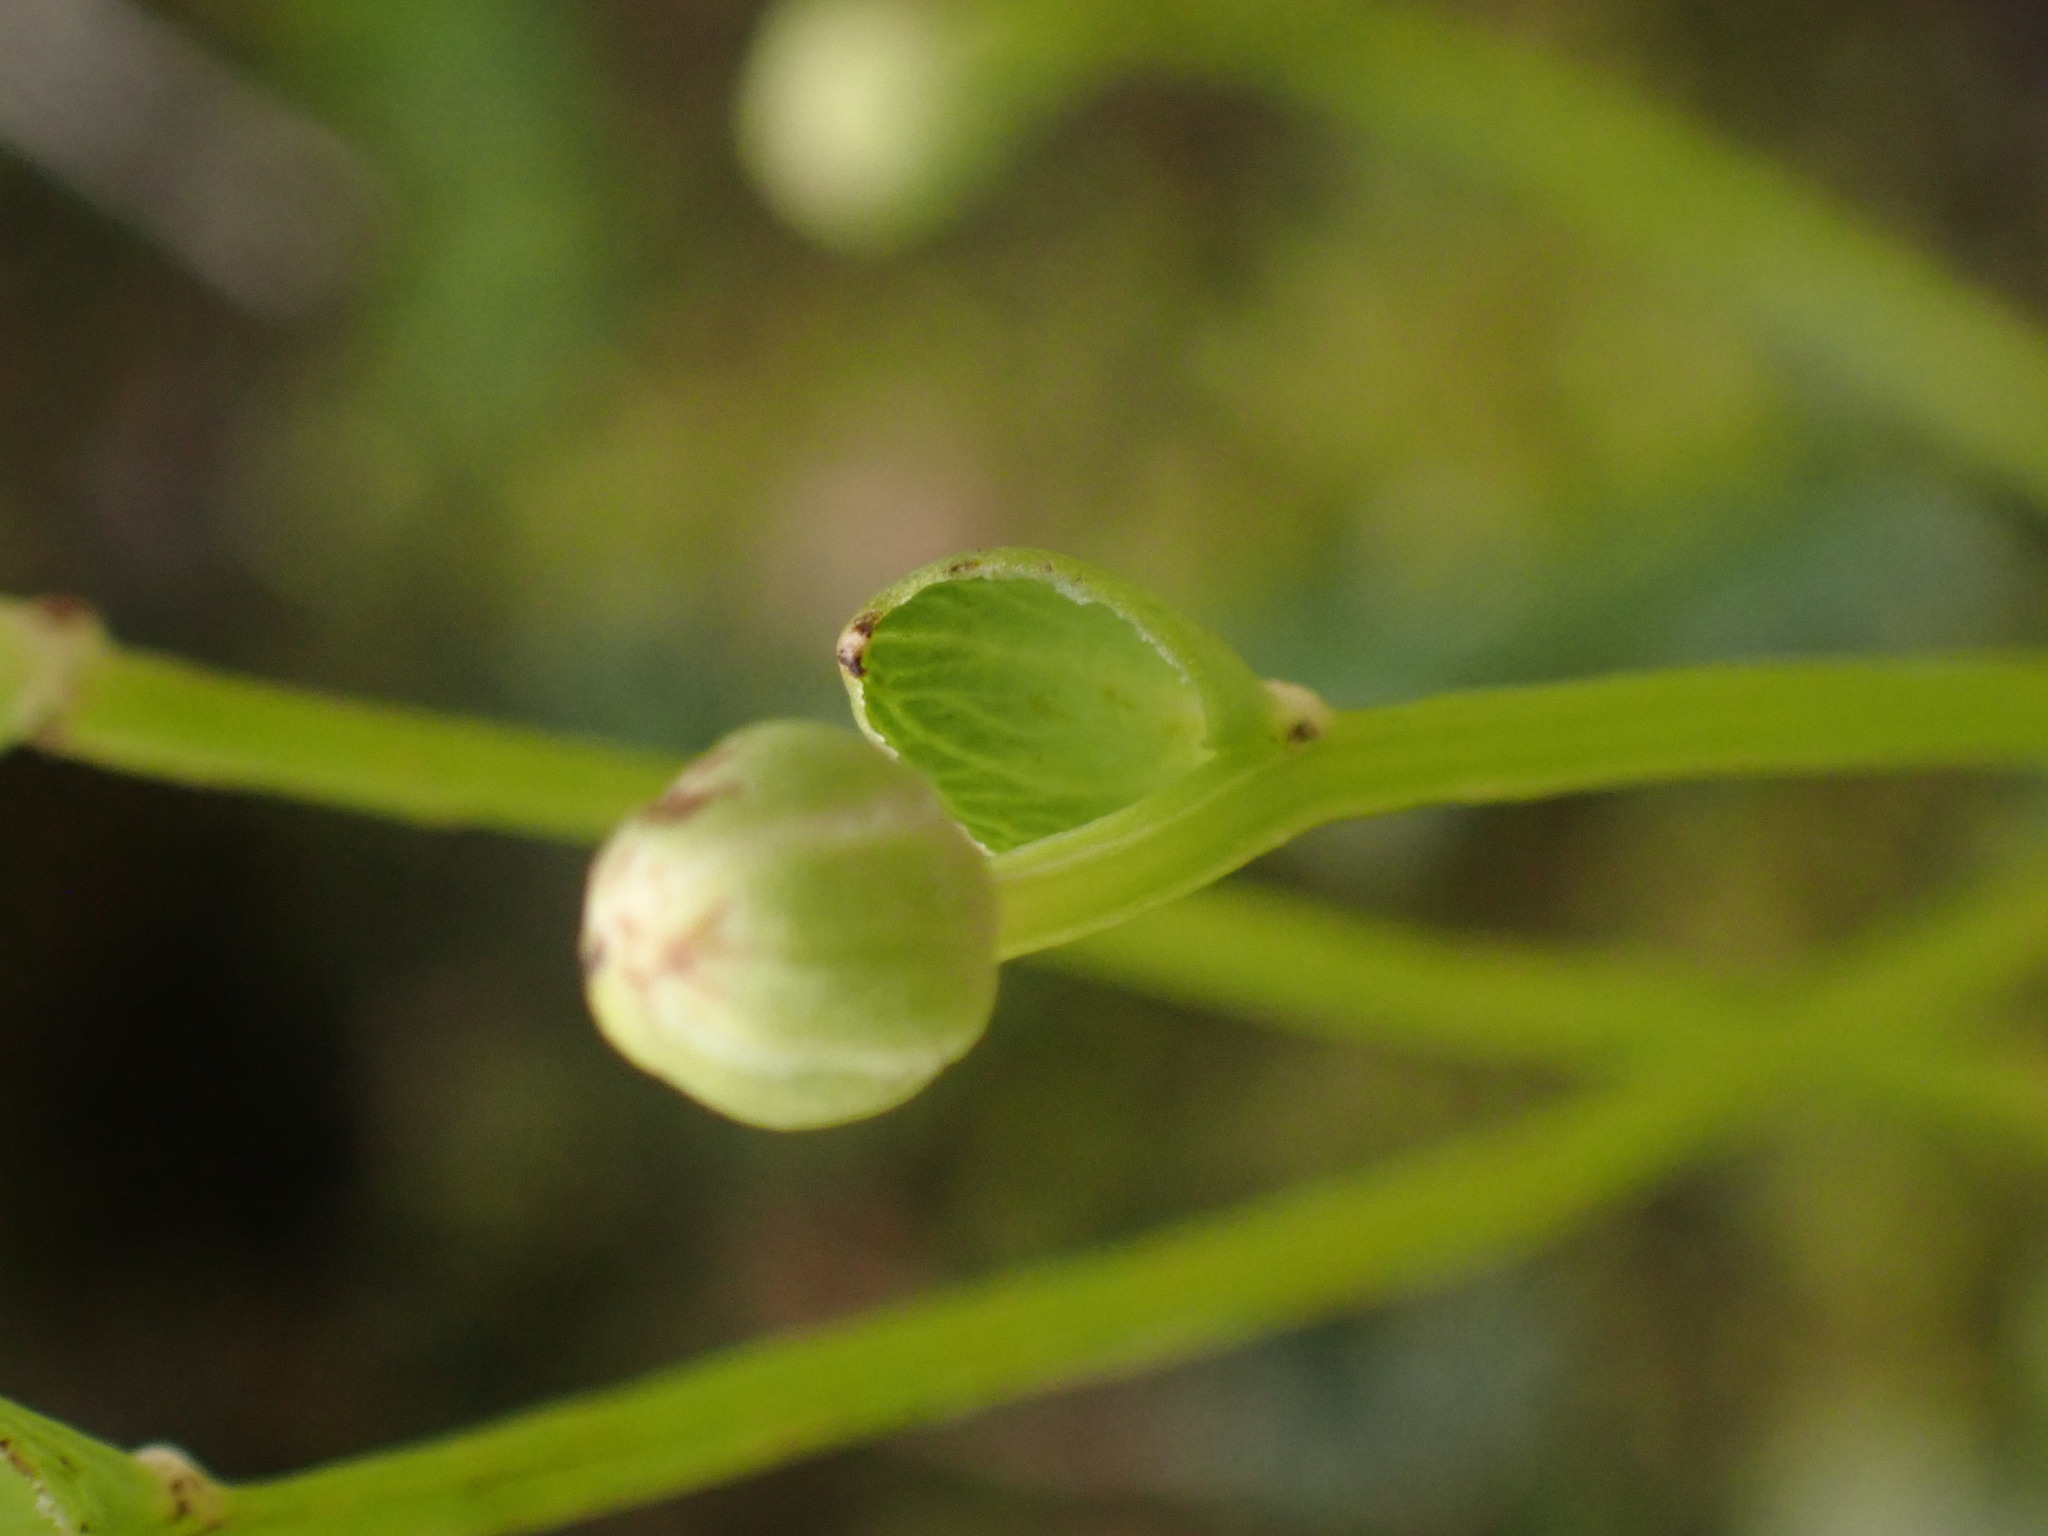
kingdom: Plantae
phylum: Tracheophyta
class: Magnoliopsida
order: Celastrales
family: Parnassiaceae
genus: Parnassia
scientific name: Parnassia fimbriata
